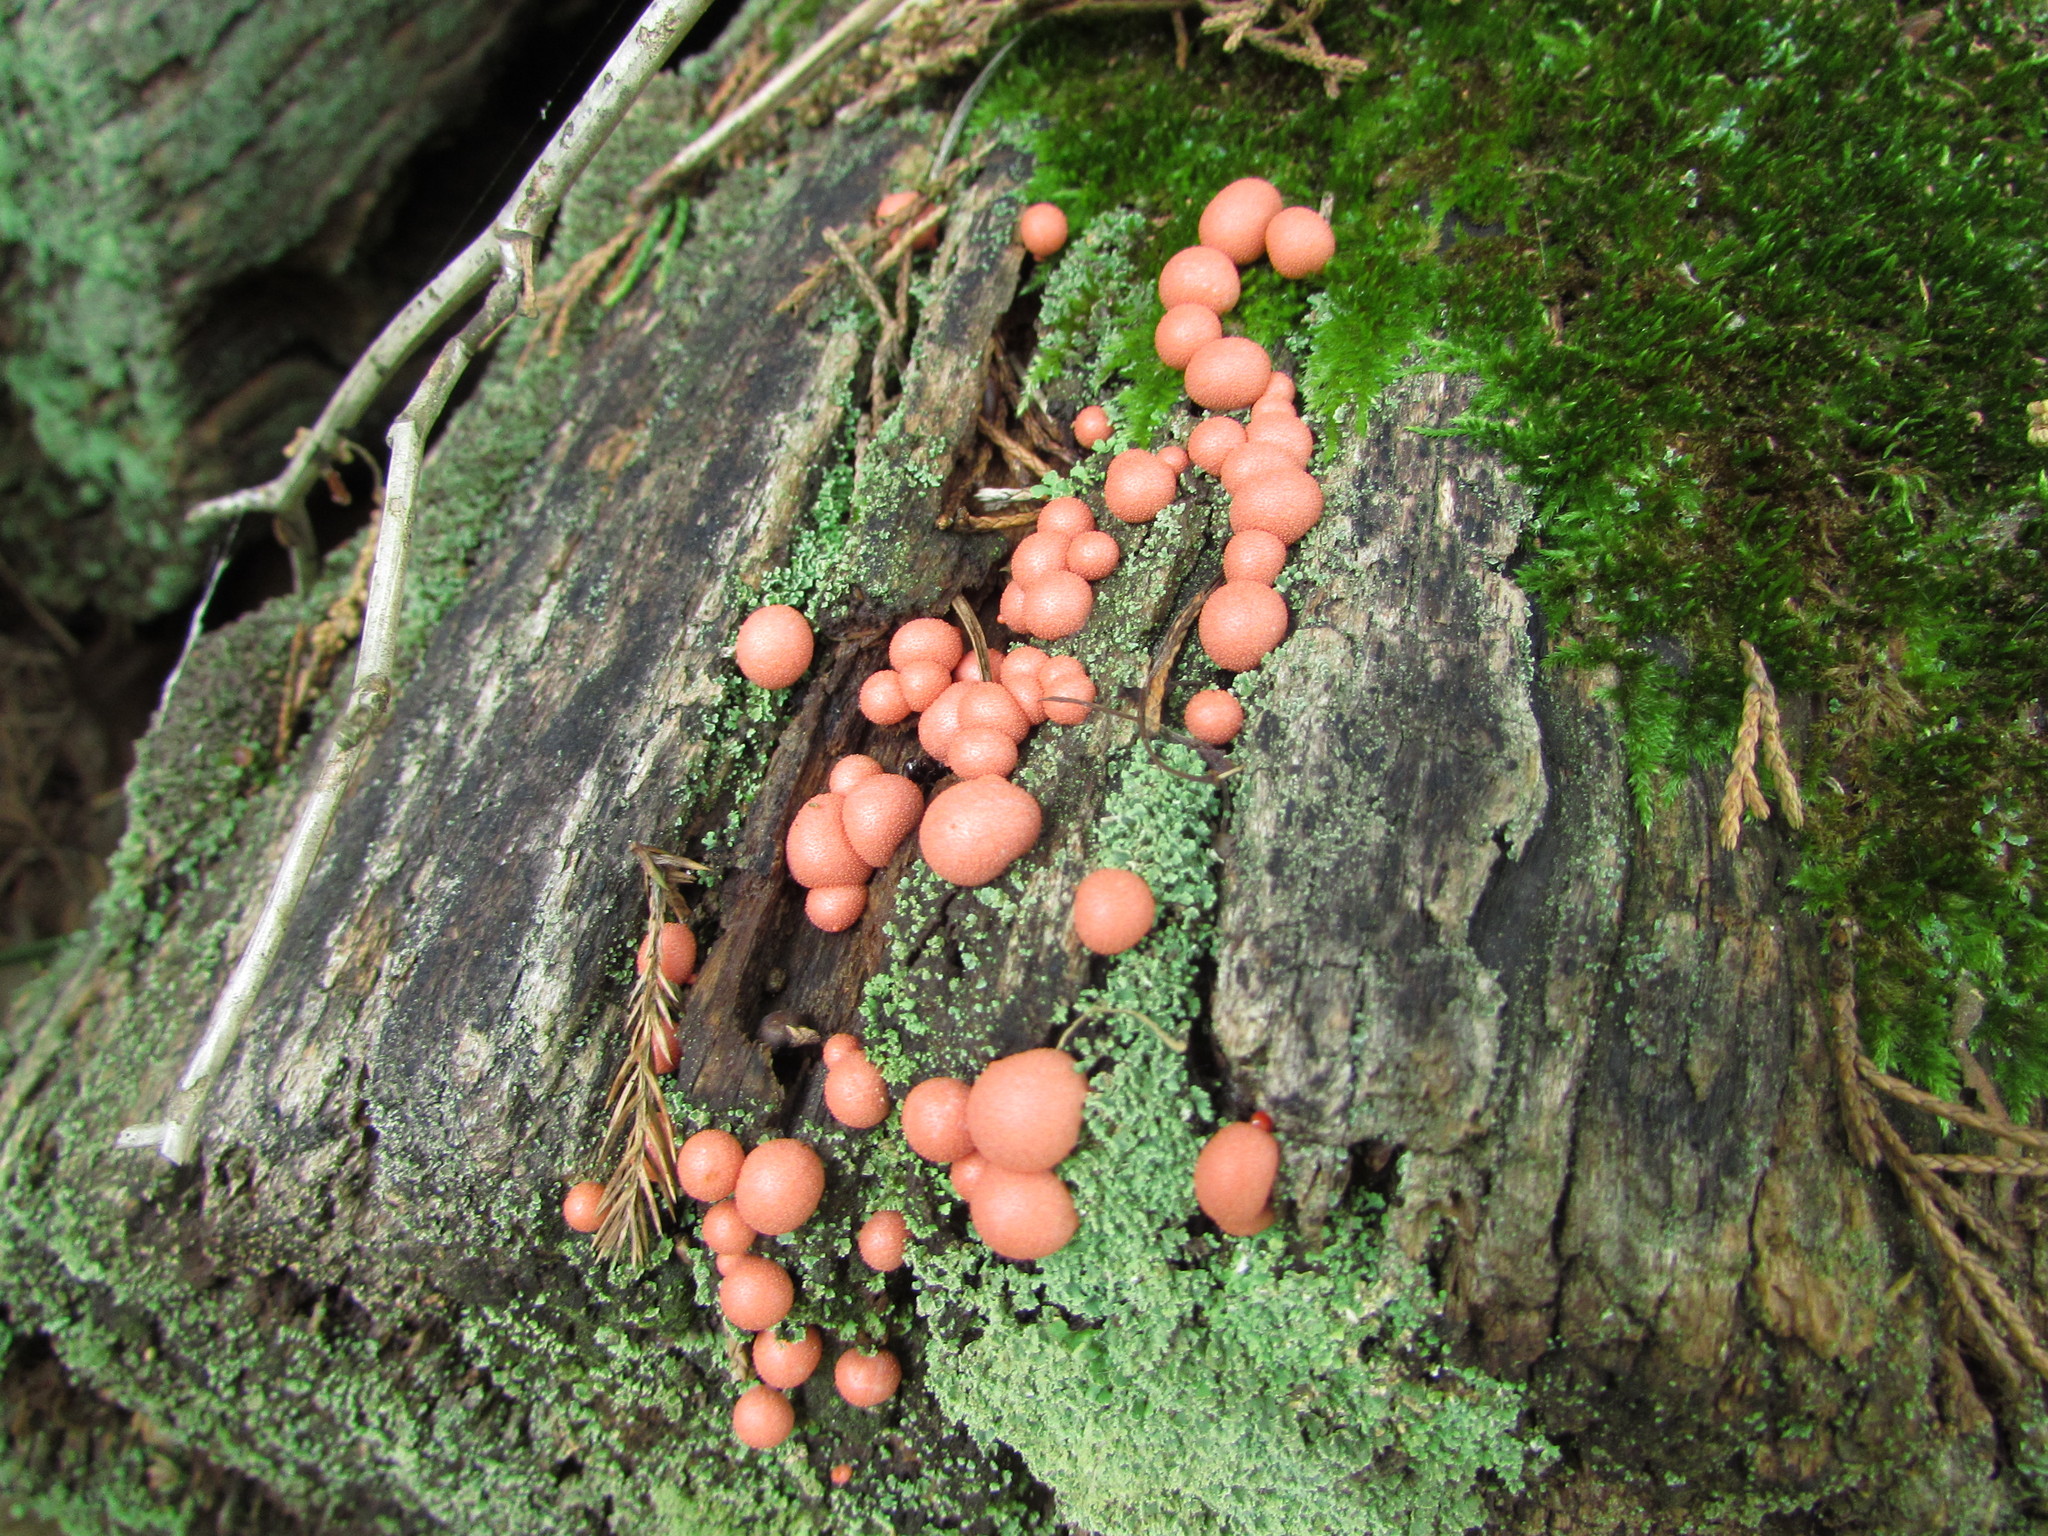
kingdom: Protozoa
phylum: Mycetozoa
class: Myxomycetes
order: Cribrariales
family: Tubiferaceae
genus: Lycogala
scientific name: Lycogala epidendrum
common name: Wolf's milk
